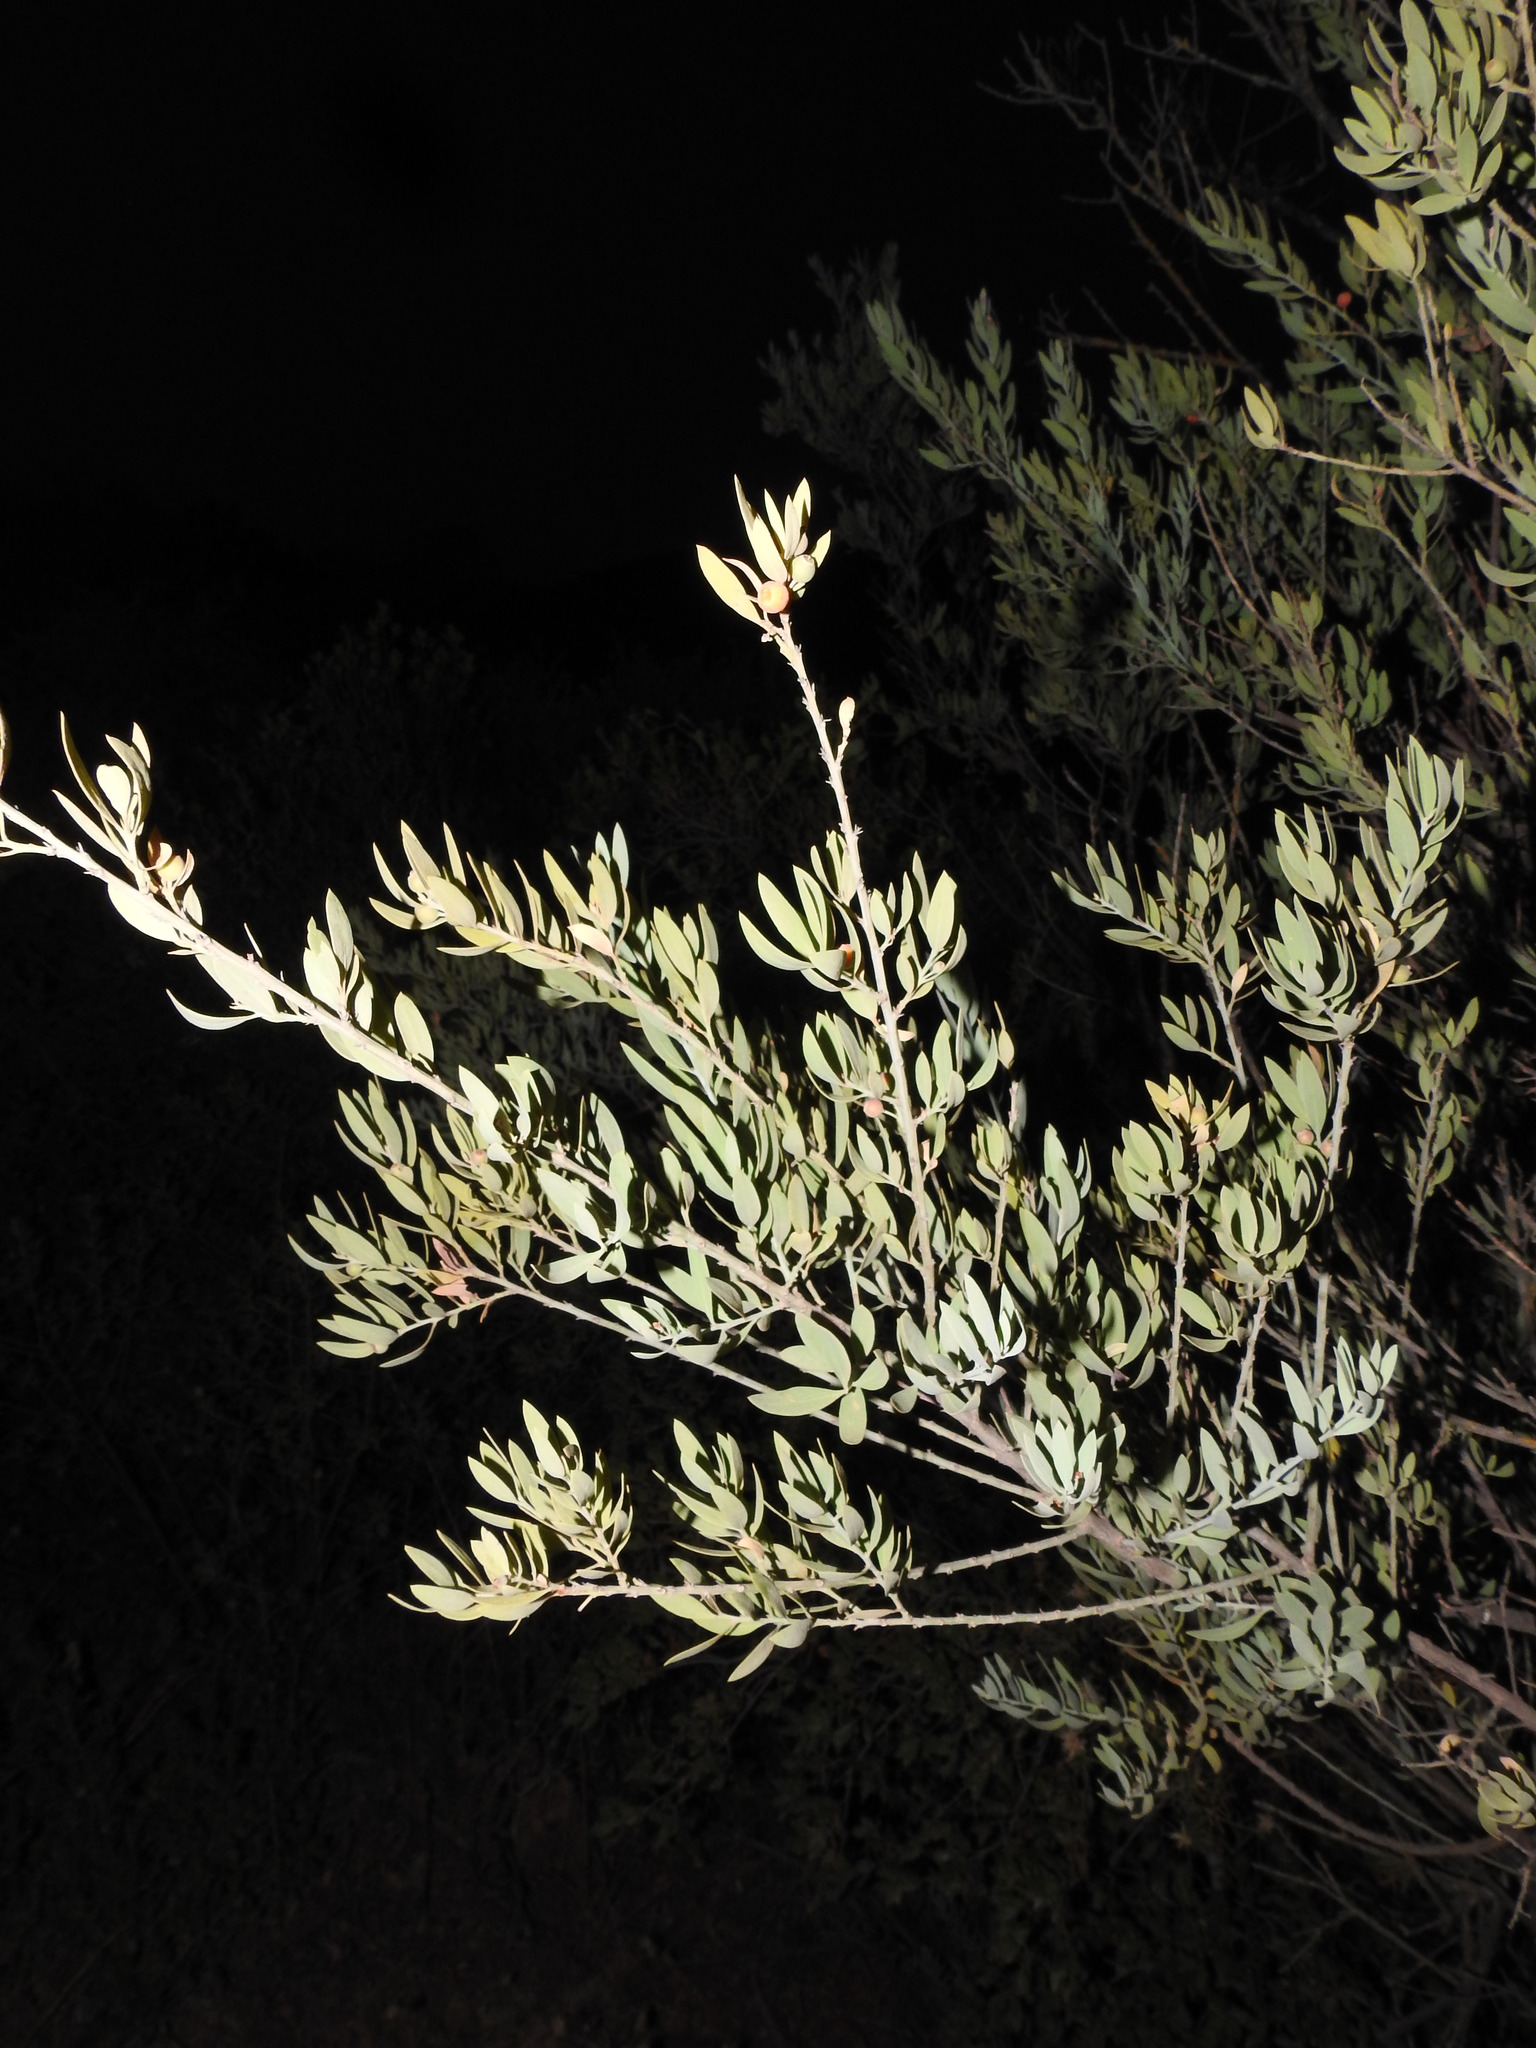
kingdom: Plantae
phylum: Tracheophyta
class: Magnoliopsida
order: Santalales
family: Santalaceae
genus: Osyris
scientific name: Osyris lanceolata
